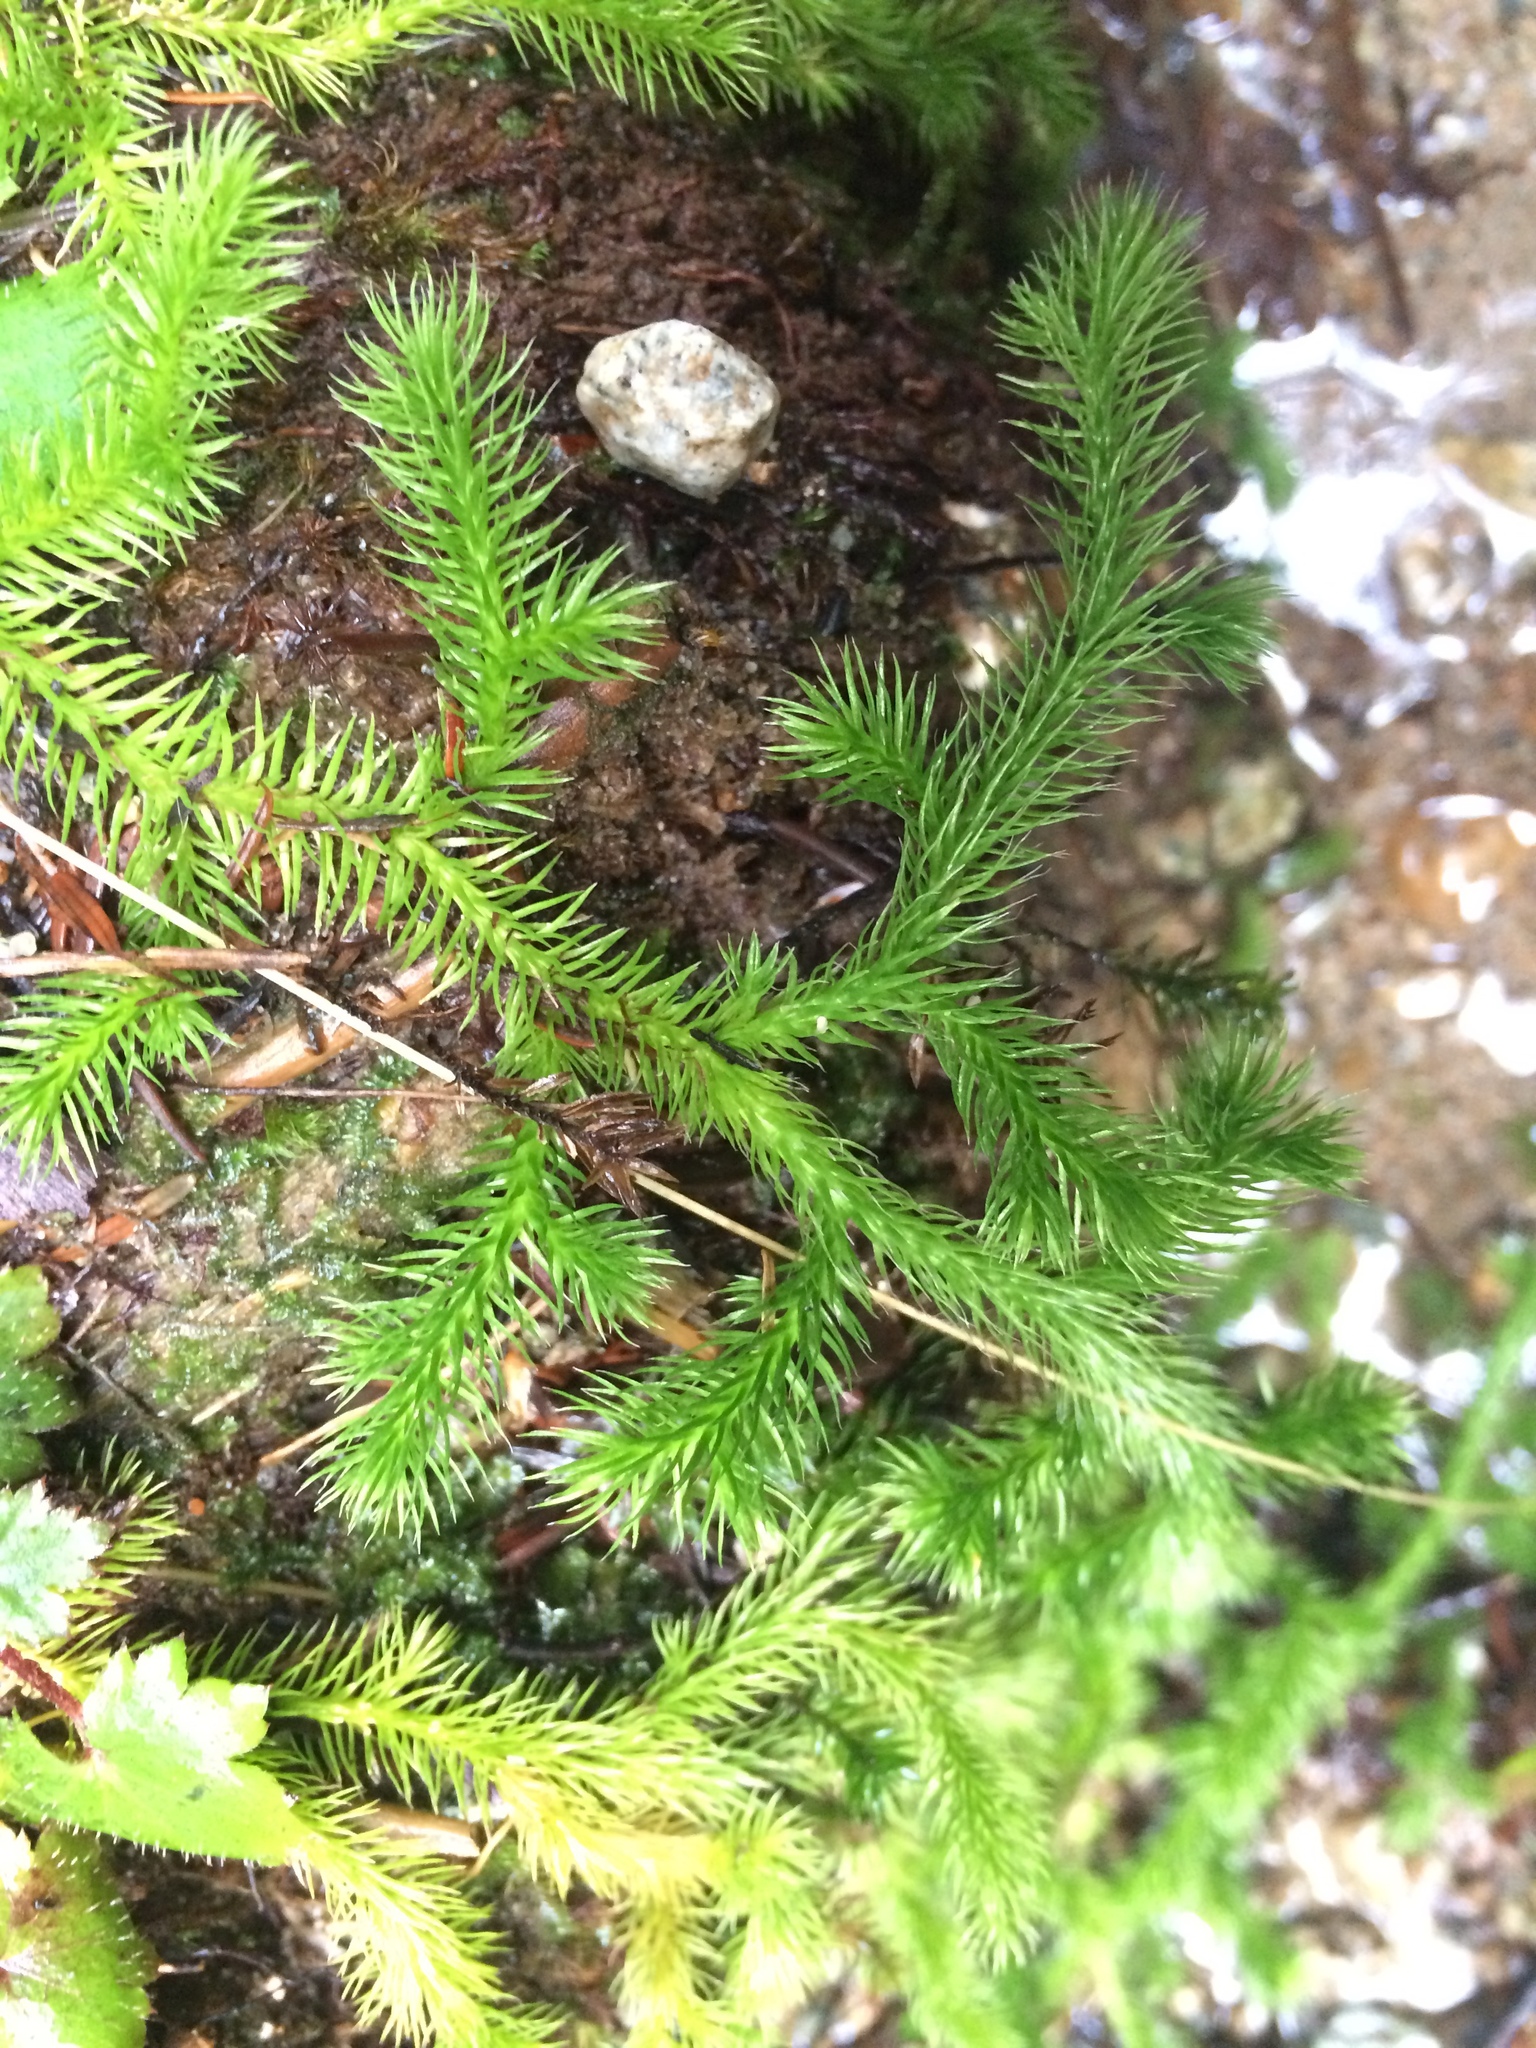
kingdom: Plantae
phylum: Tracheophyta
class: Lycopodiopsida
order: Lycopodiales
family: Lycopodiaceae
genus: Lycopodium
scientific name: Lycopodium clavatum
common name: Stag's-horn clubmoss
